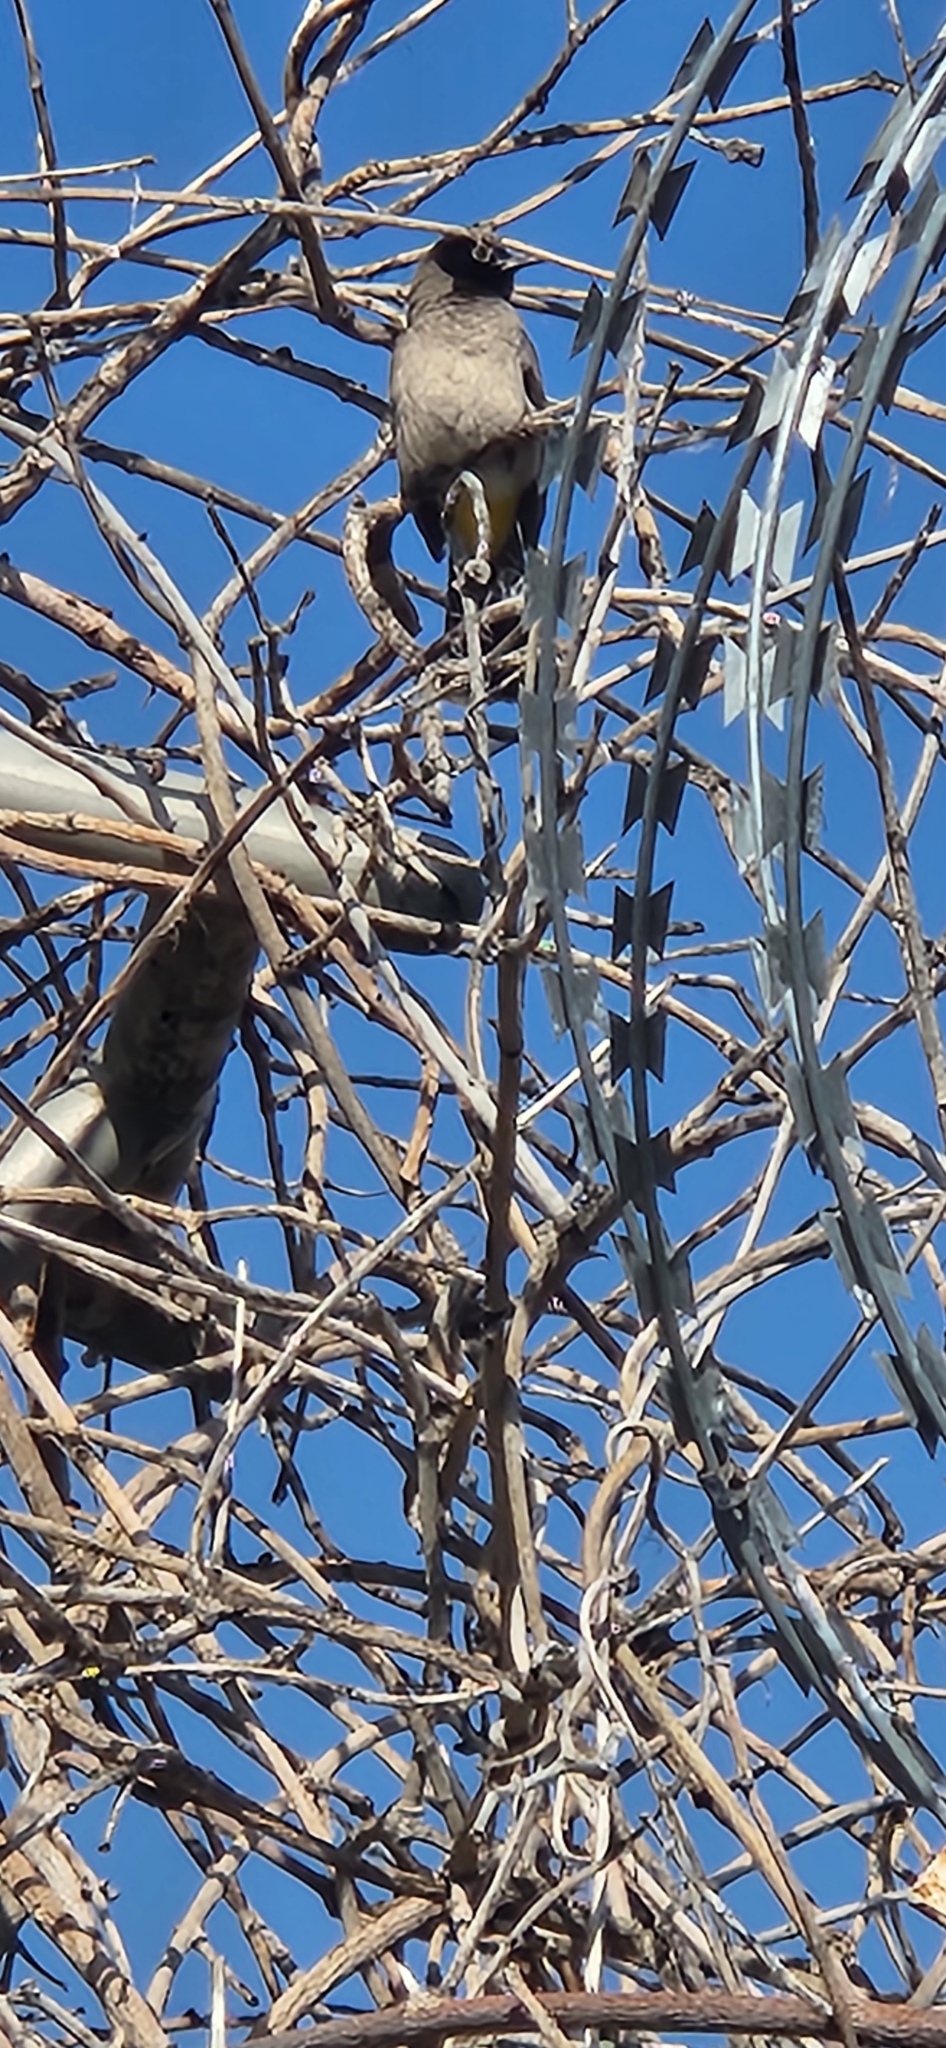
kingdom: Animalia
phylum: Chordata
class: Aves
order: Passeriformes
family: Pycnonotidae
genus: Pycnonotus
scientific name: Pycnonotus xanthopygos
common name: White-spectacled bulbul
